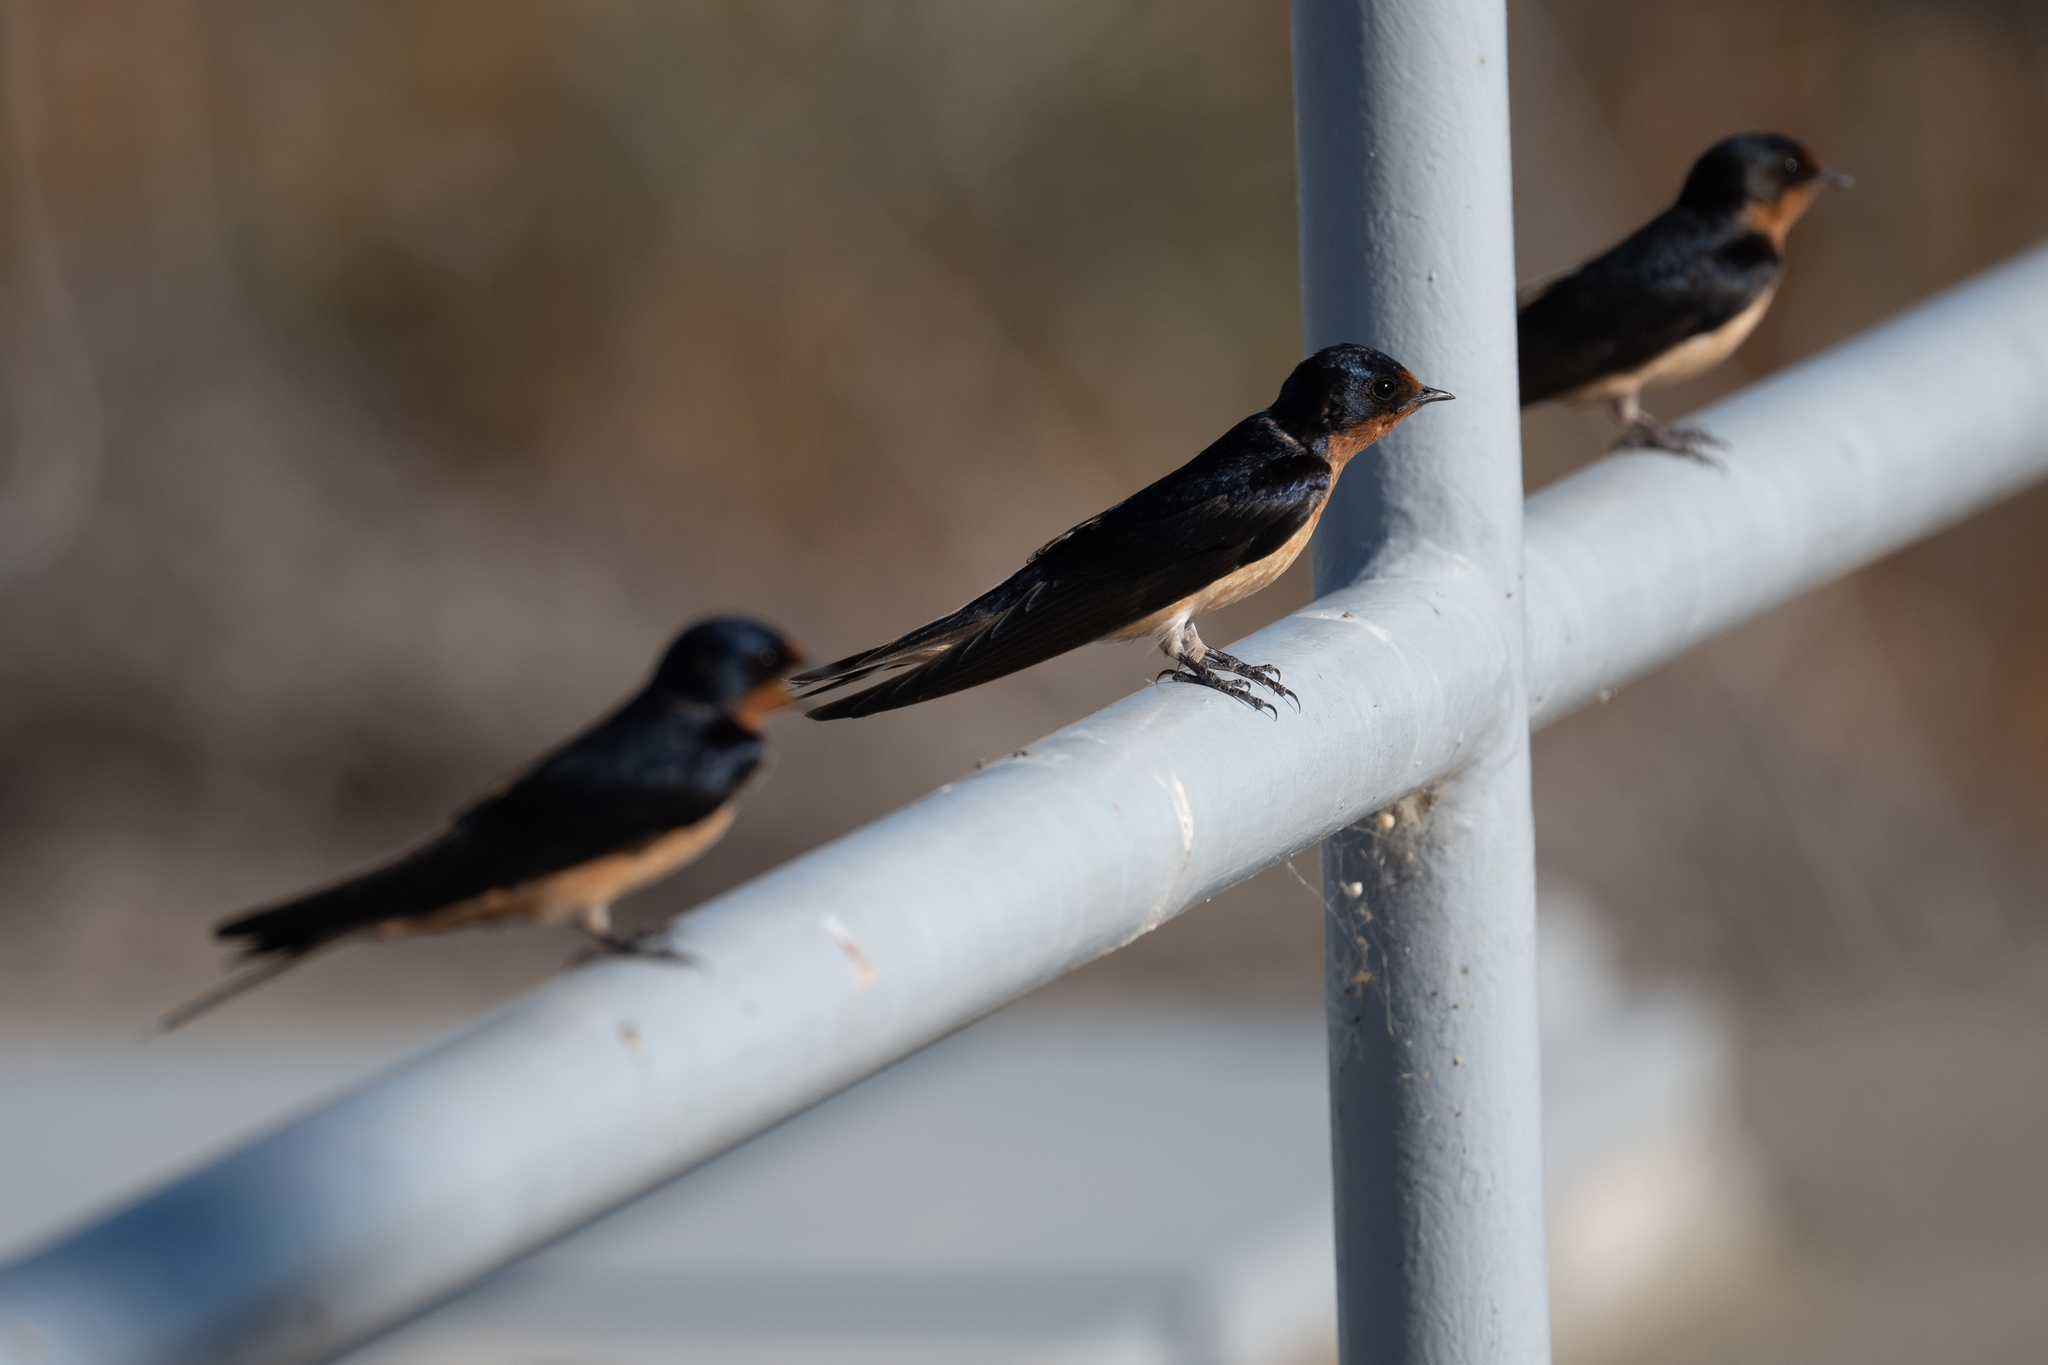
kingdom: Animalia
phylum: Chordata
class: Aves
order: Passeriformes
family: Hirundinidae
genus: Hirundo
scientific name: Hirundo rustica
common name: Barn swallow
